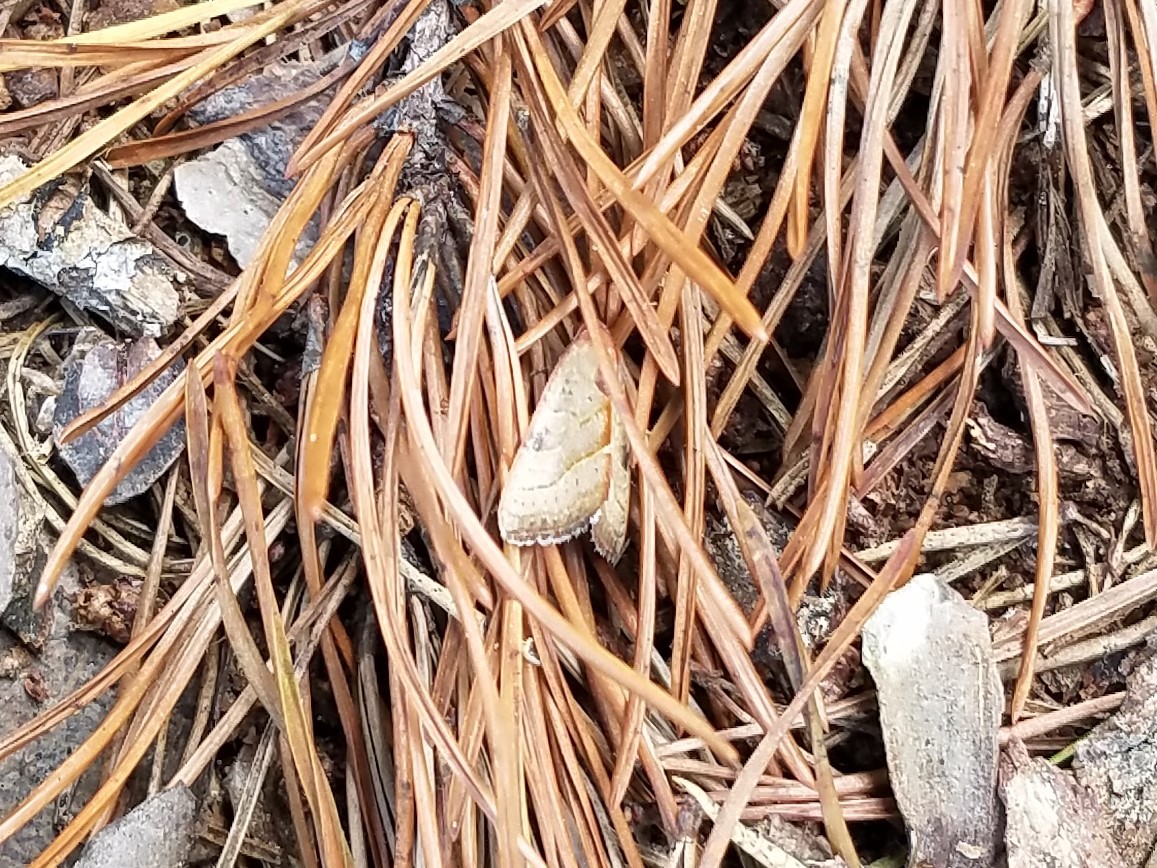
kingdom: Animalia
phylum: Arthropoda
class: Insecta
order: Lepidoptera
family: Noctuidae
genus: Galgula
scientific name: Galgula partita
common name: Wedgeling
